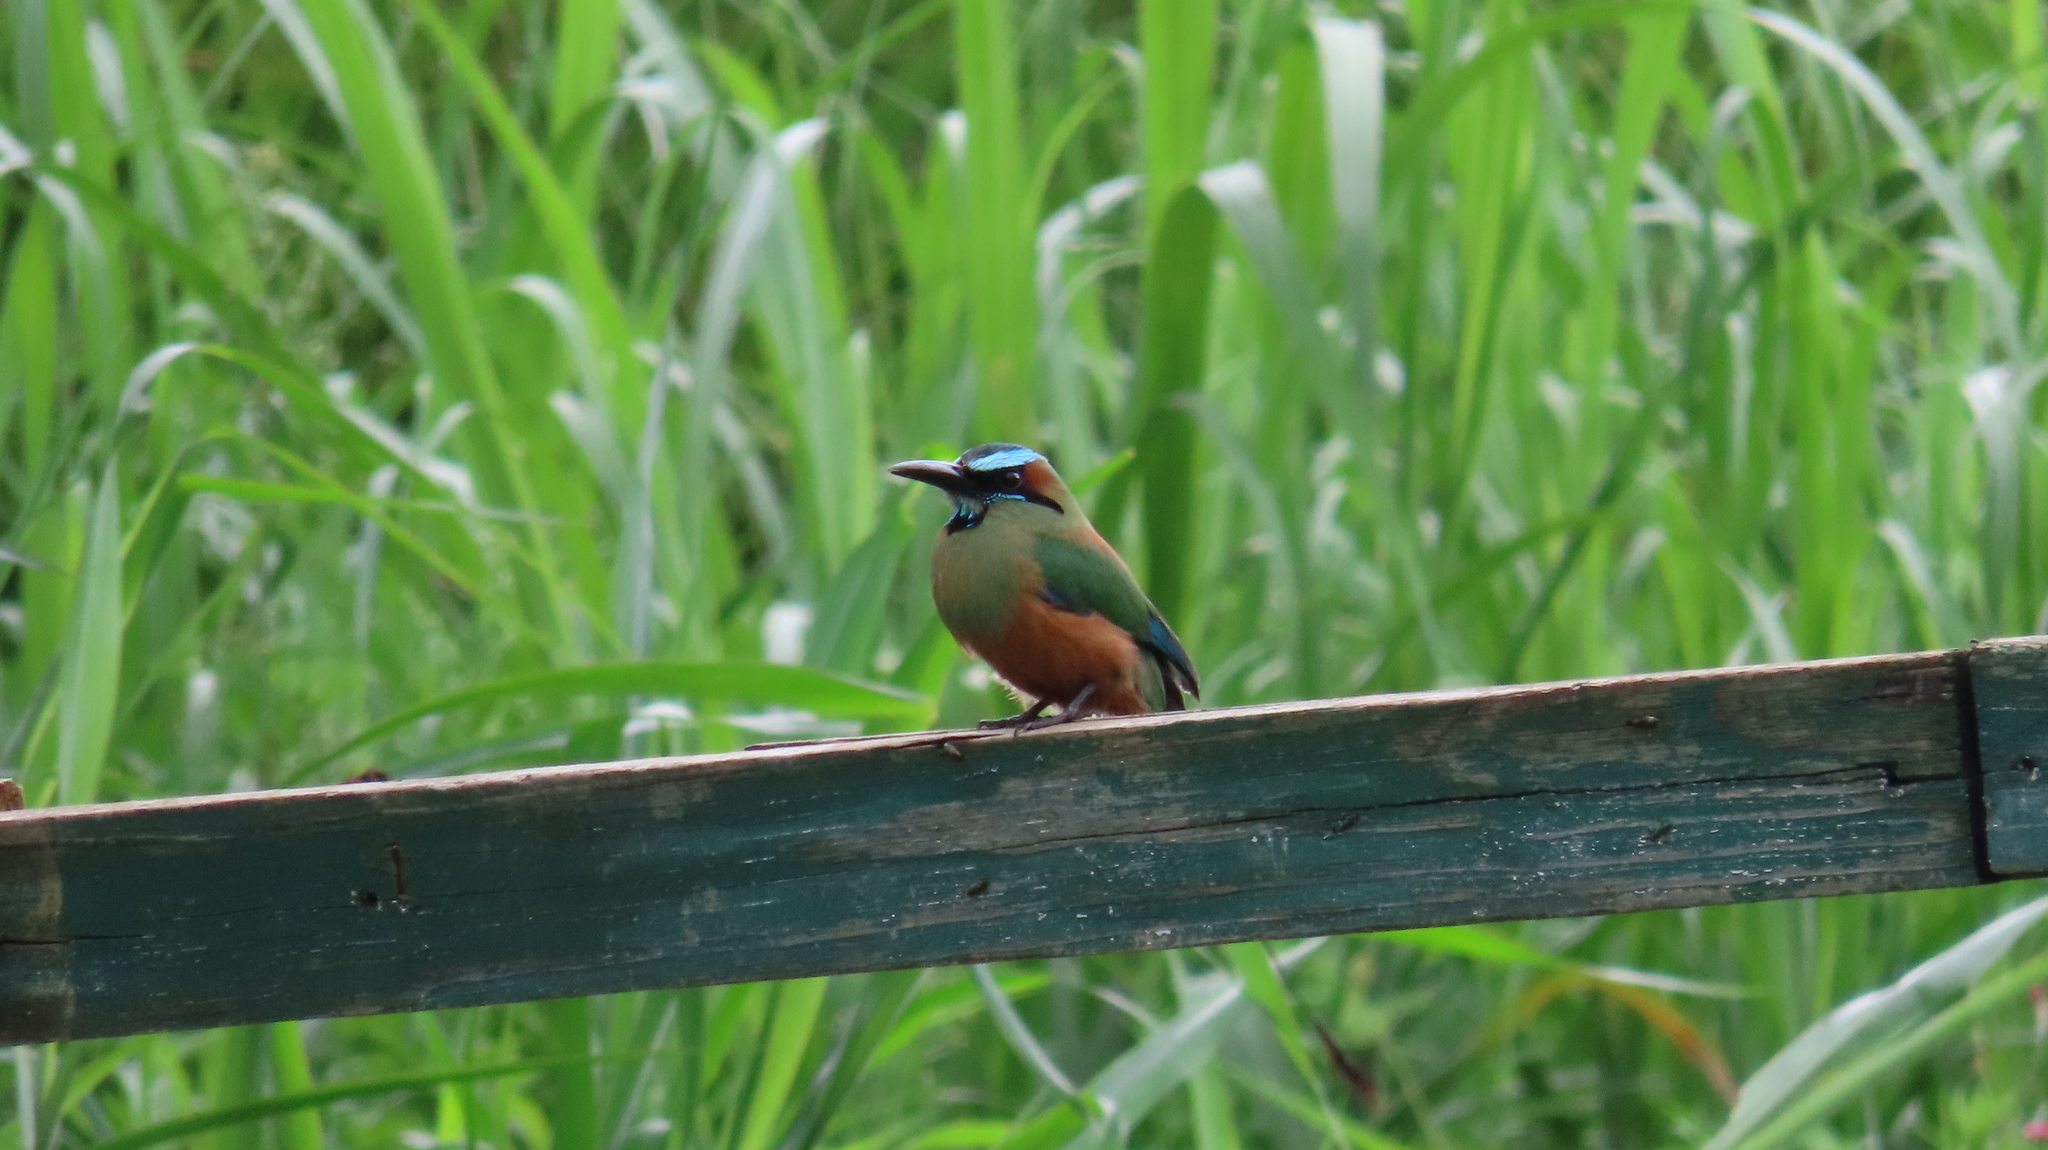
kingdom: Animalia
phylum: Chordata
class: Aves
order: Coraciiformes
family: Momotidae
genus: Eumomota
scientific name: Eumomota superciliosa
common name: Turquoise-browed motmot
